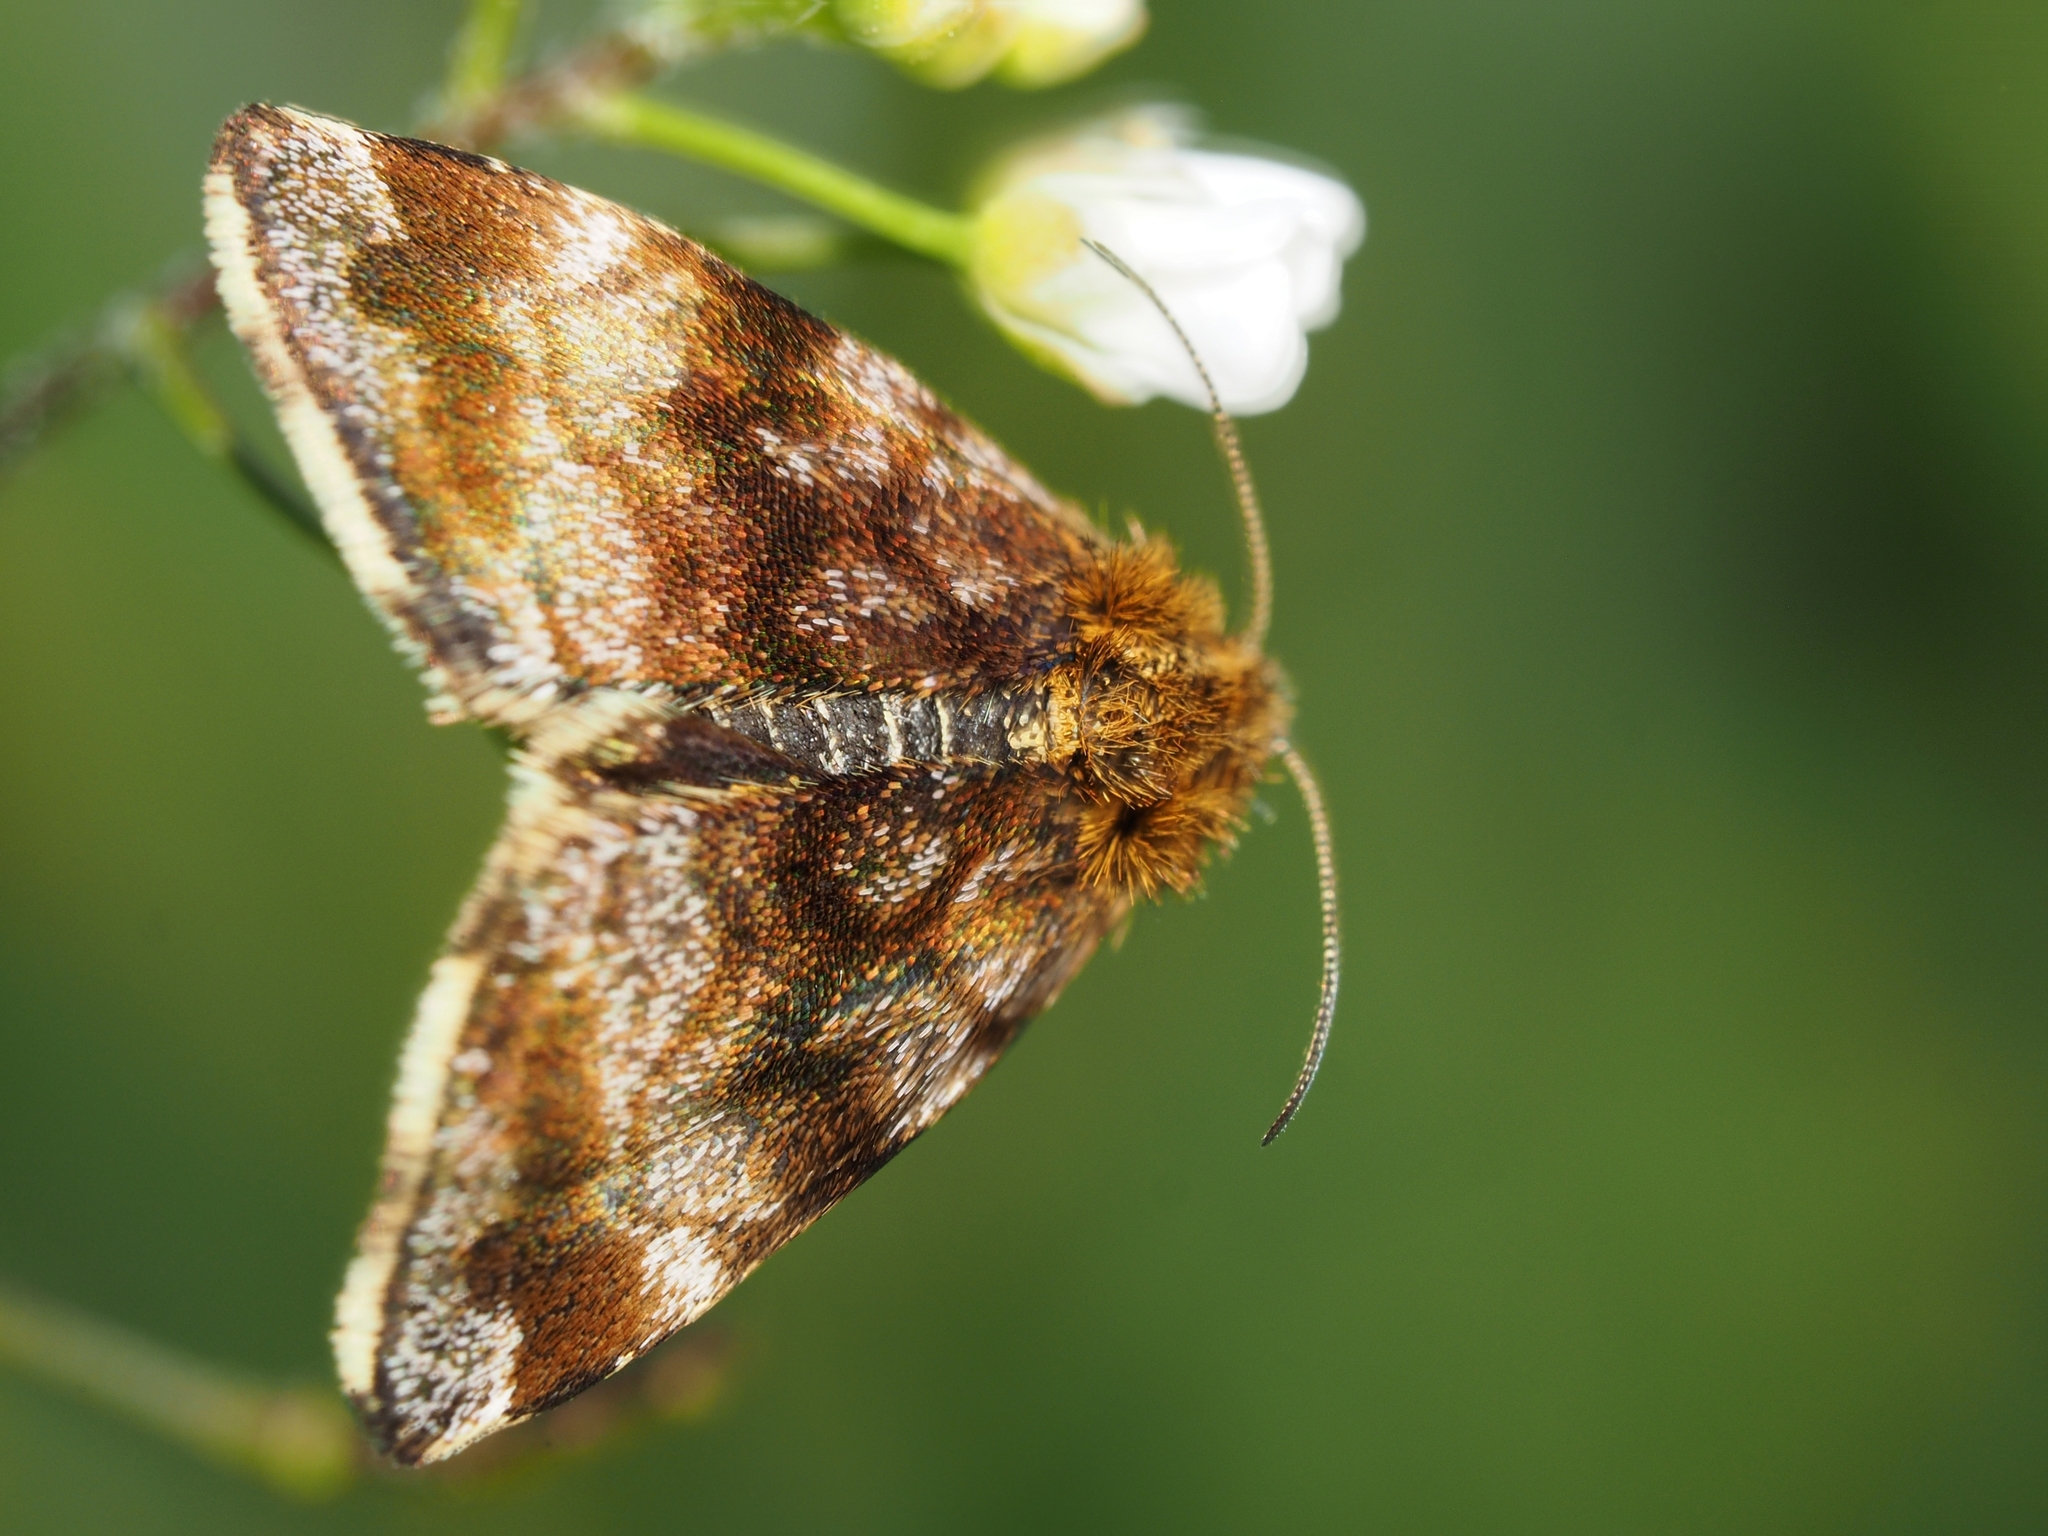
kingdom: Animalia
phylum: Arthropoda
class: Insecta
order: Lepidoptera
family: Noctuidae
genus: Panemeria
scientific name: Panemeria tenebrata
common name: Small yellow underwing
